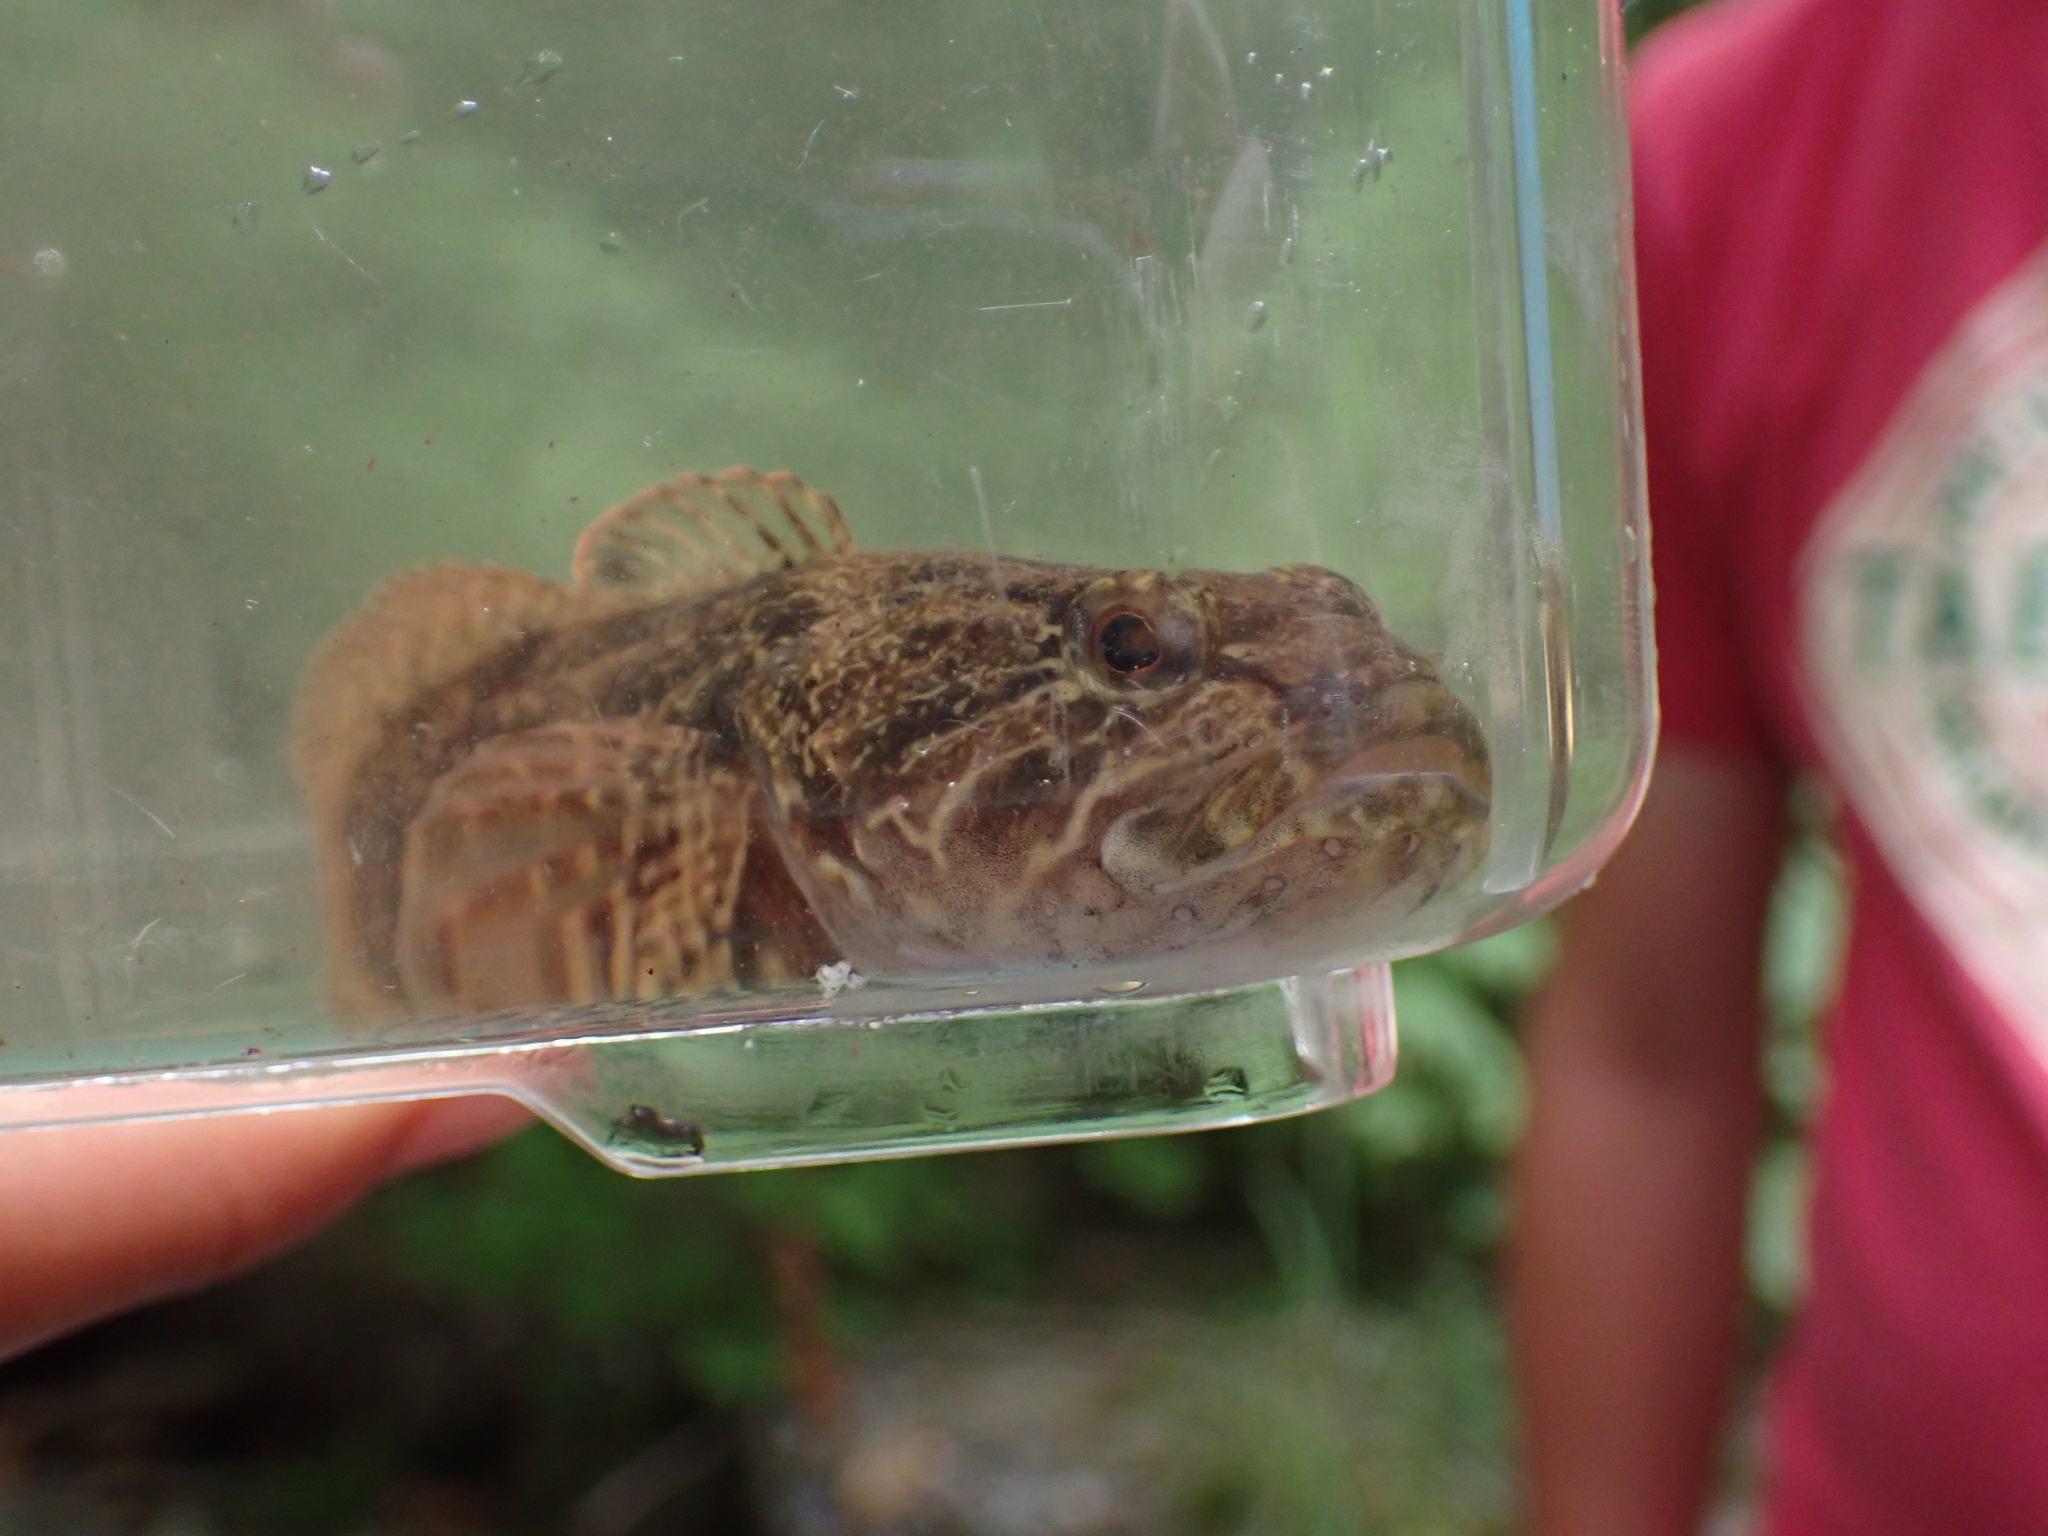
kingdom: Animalia
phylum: Chordata
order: Scorpaeniformes
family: Cottidae
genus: Cottus
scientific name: Cottus asper
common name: Prickly sculpin
